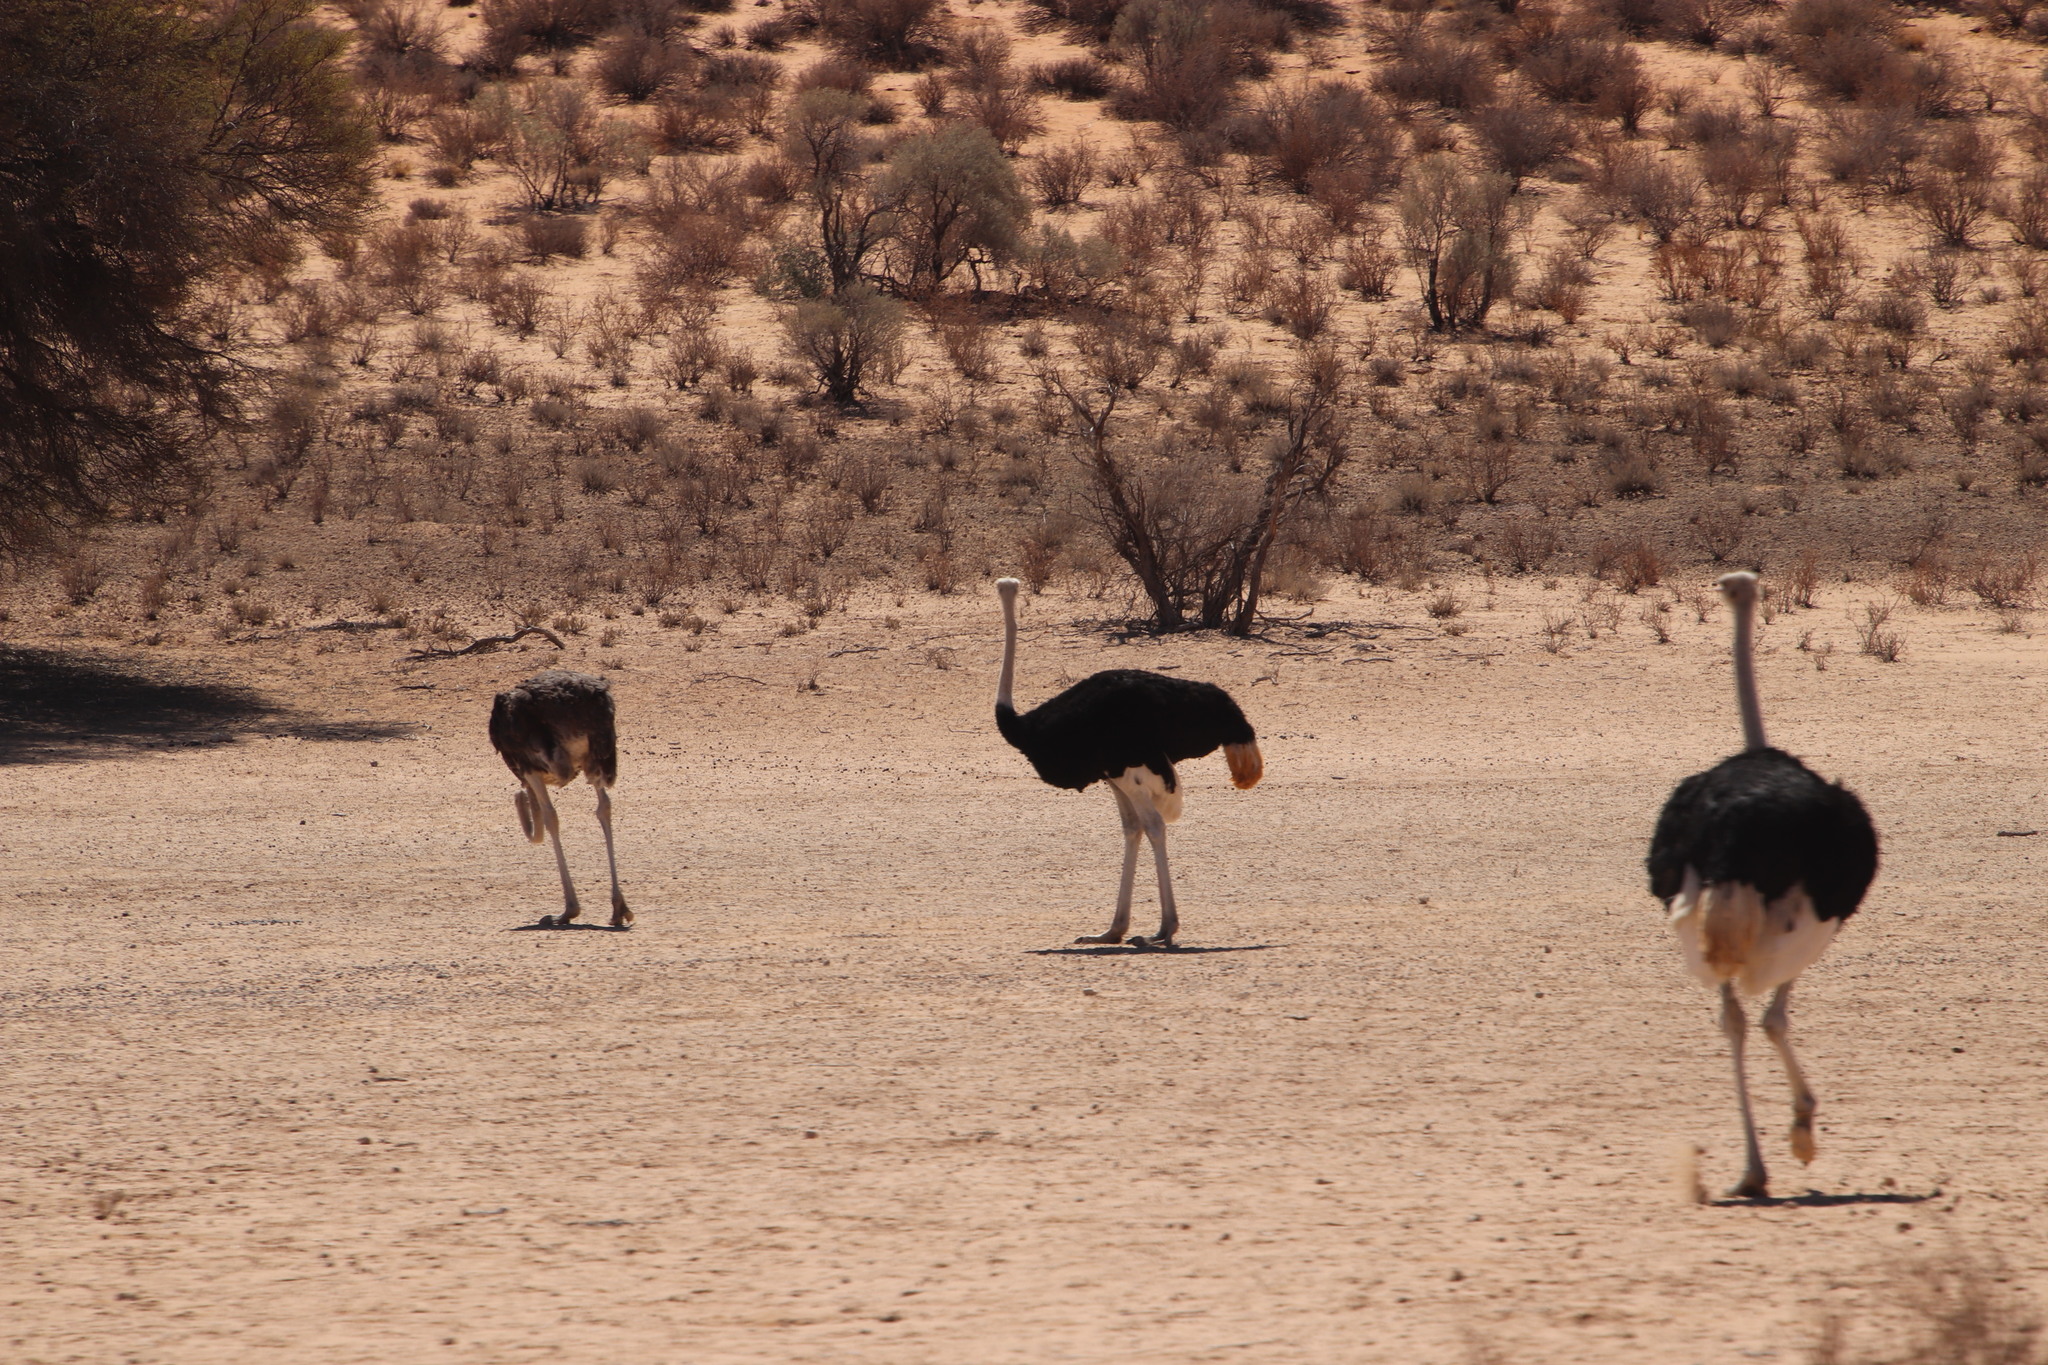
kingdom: Animalia
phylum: Chordata
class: Aves
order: Struthioniformes
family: Struthionidae
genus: Struthio
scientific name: Struthio camelus
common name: Common ostrich
